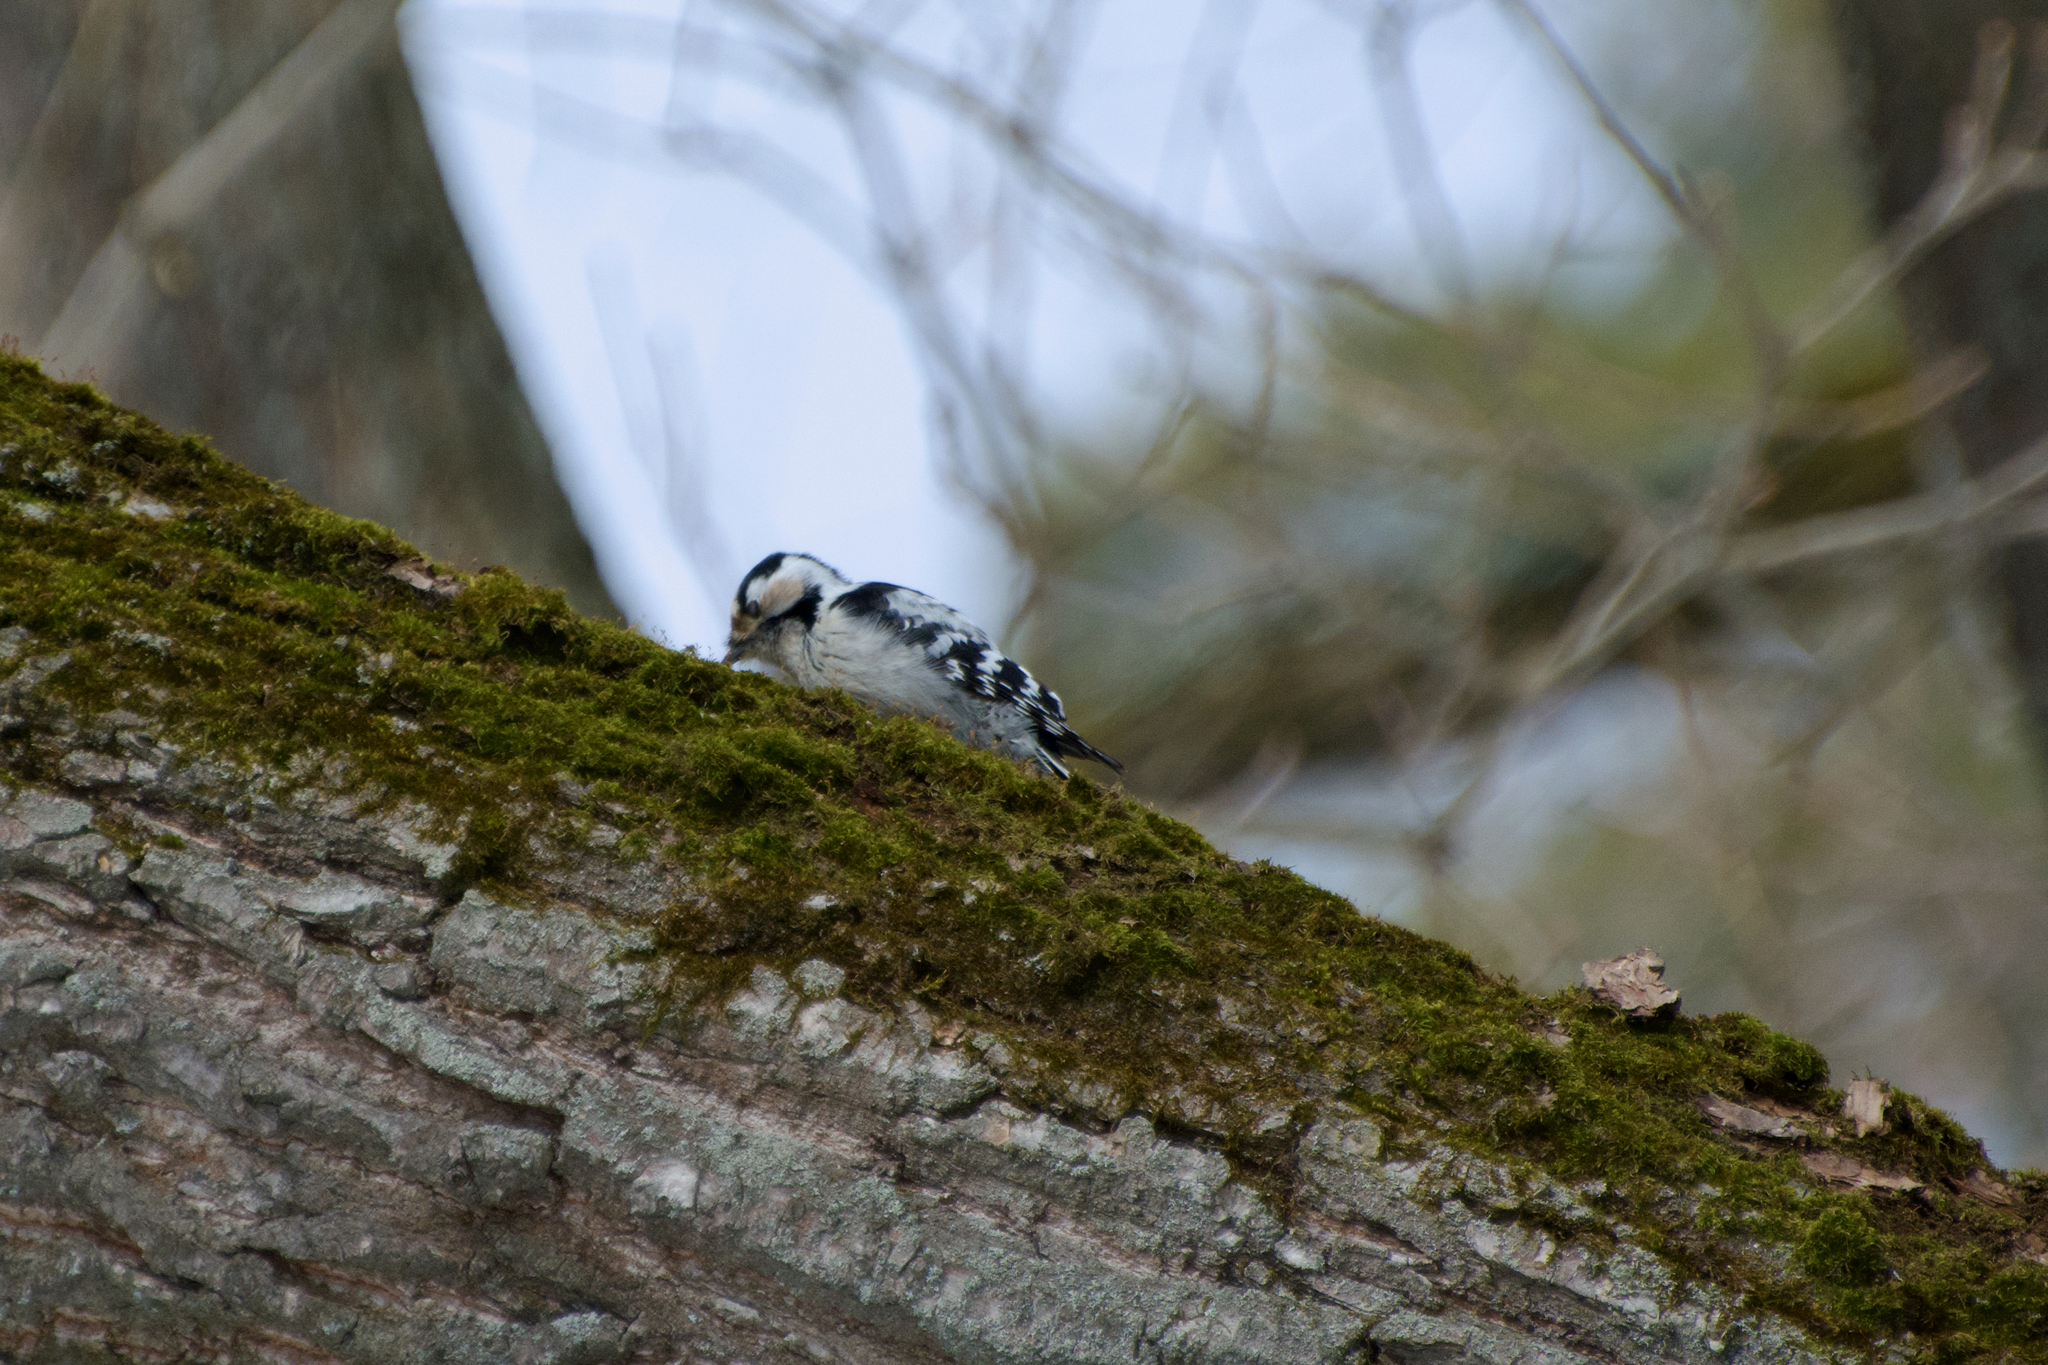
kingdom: Animalia
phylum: Chordata
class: Aves
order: Piciformes
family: Picidae
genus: Dryobates
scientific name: Dryobates minor
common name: Lesser spotted woodpecker
